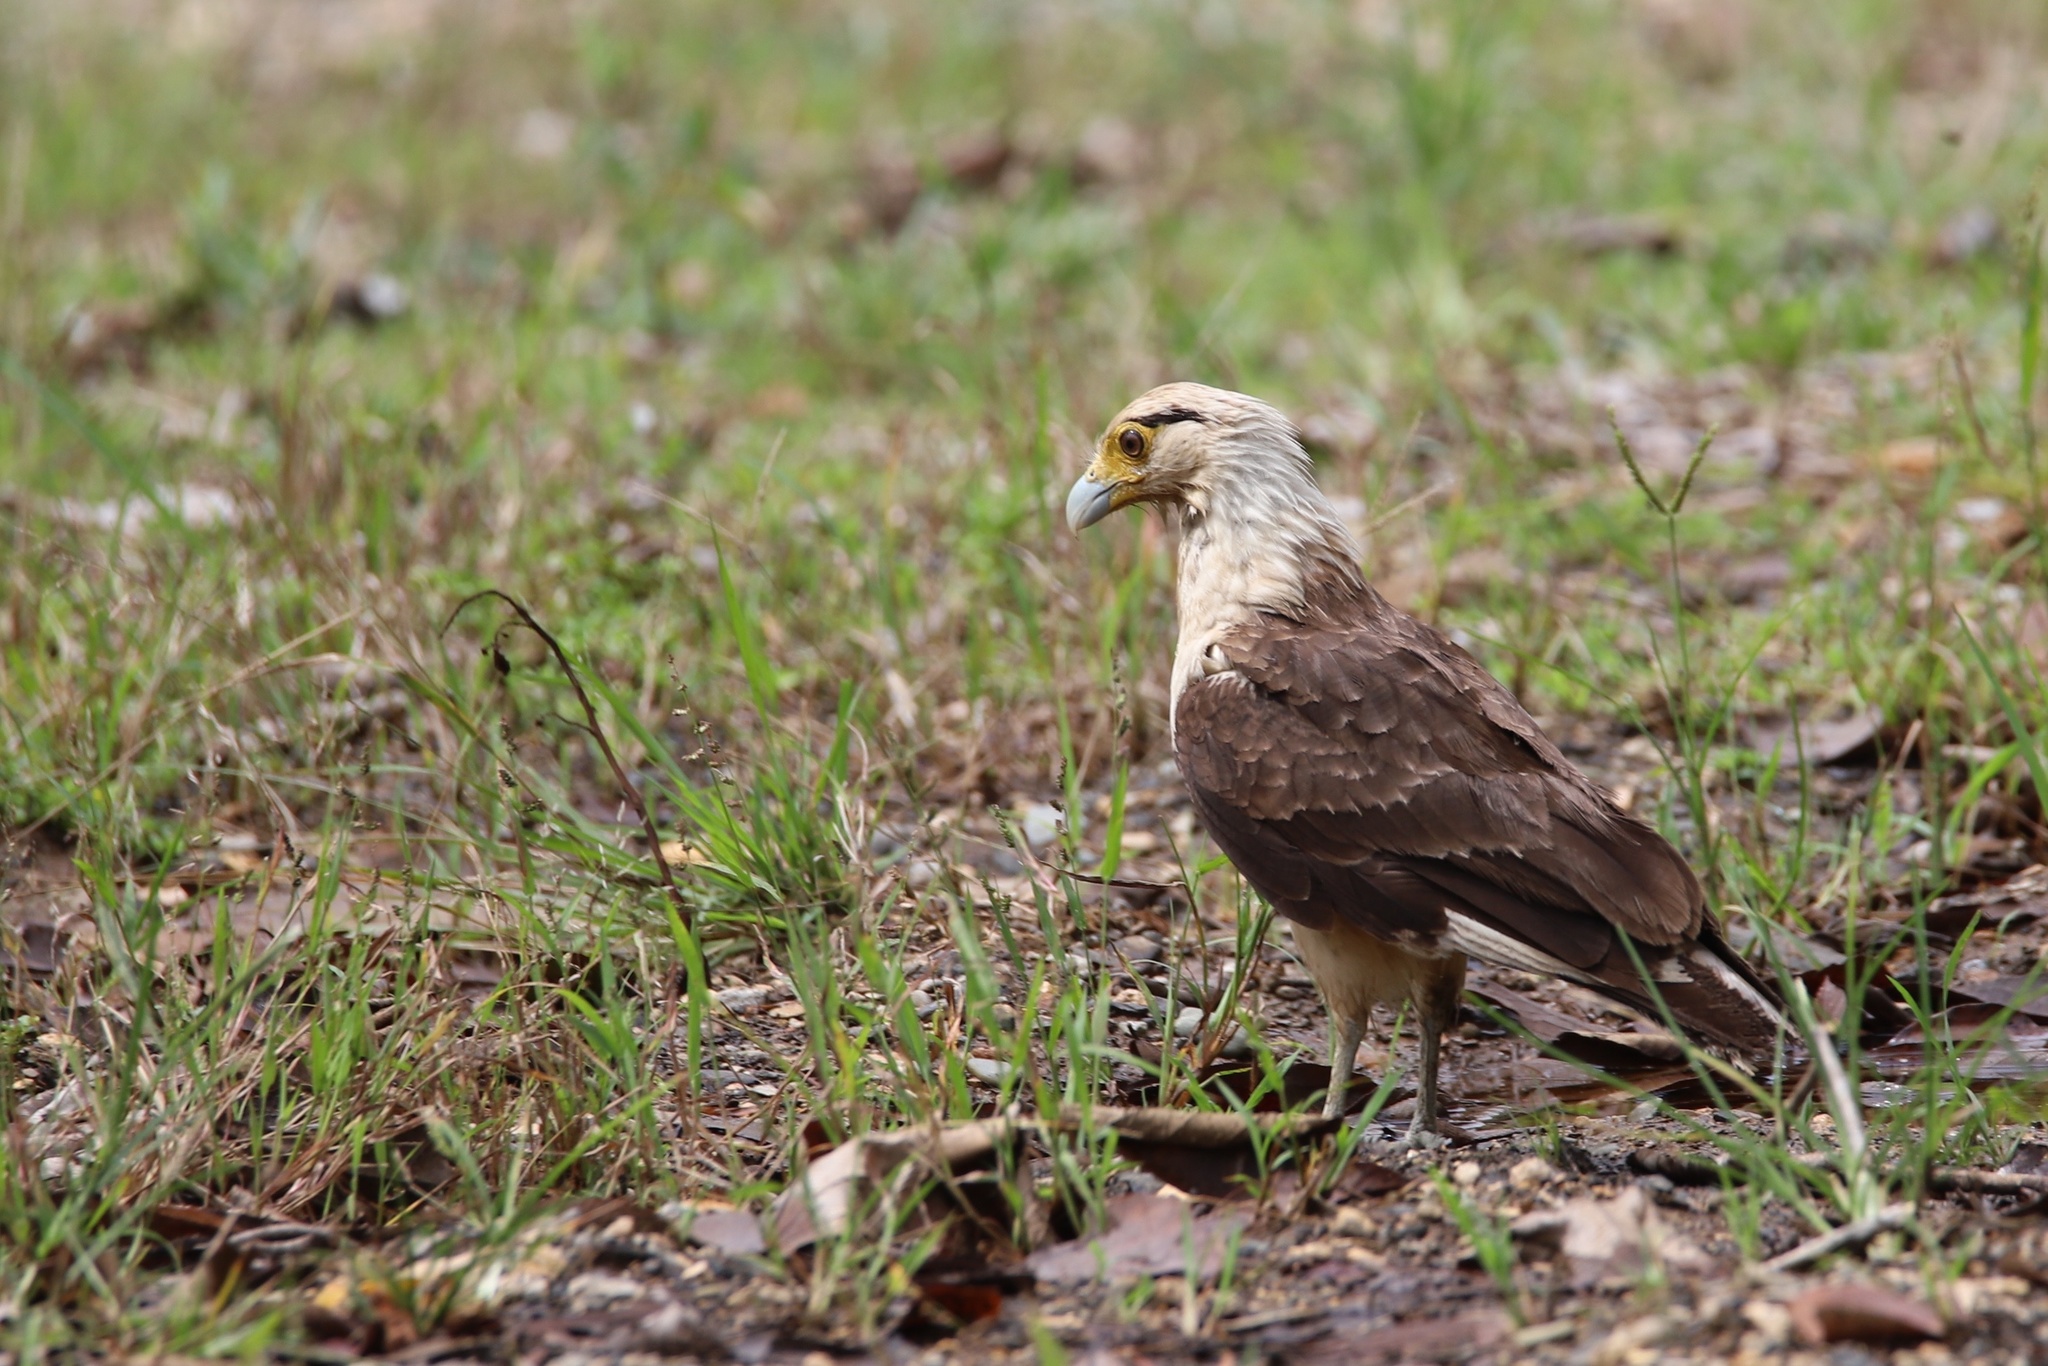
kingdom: Animalia
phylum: Chordata
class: Aves
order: Falconiformes
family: Falconidae
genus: Daptrius
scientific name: Daptrius
